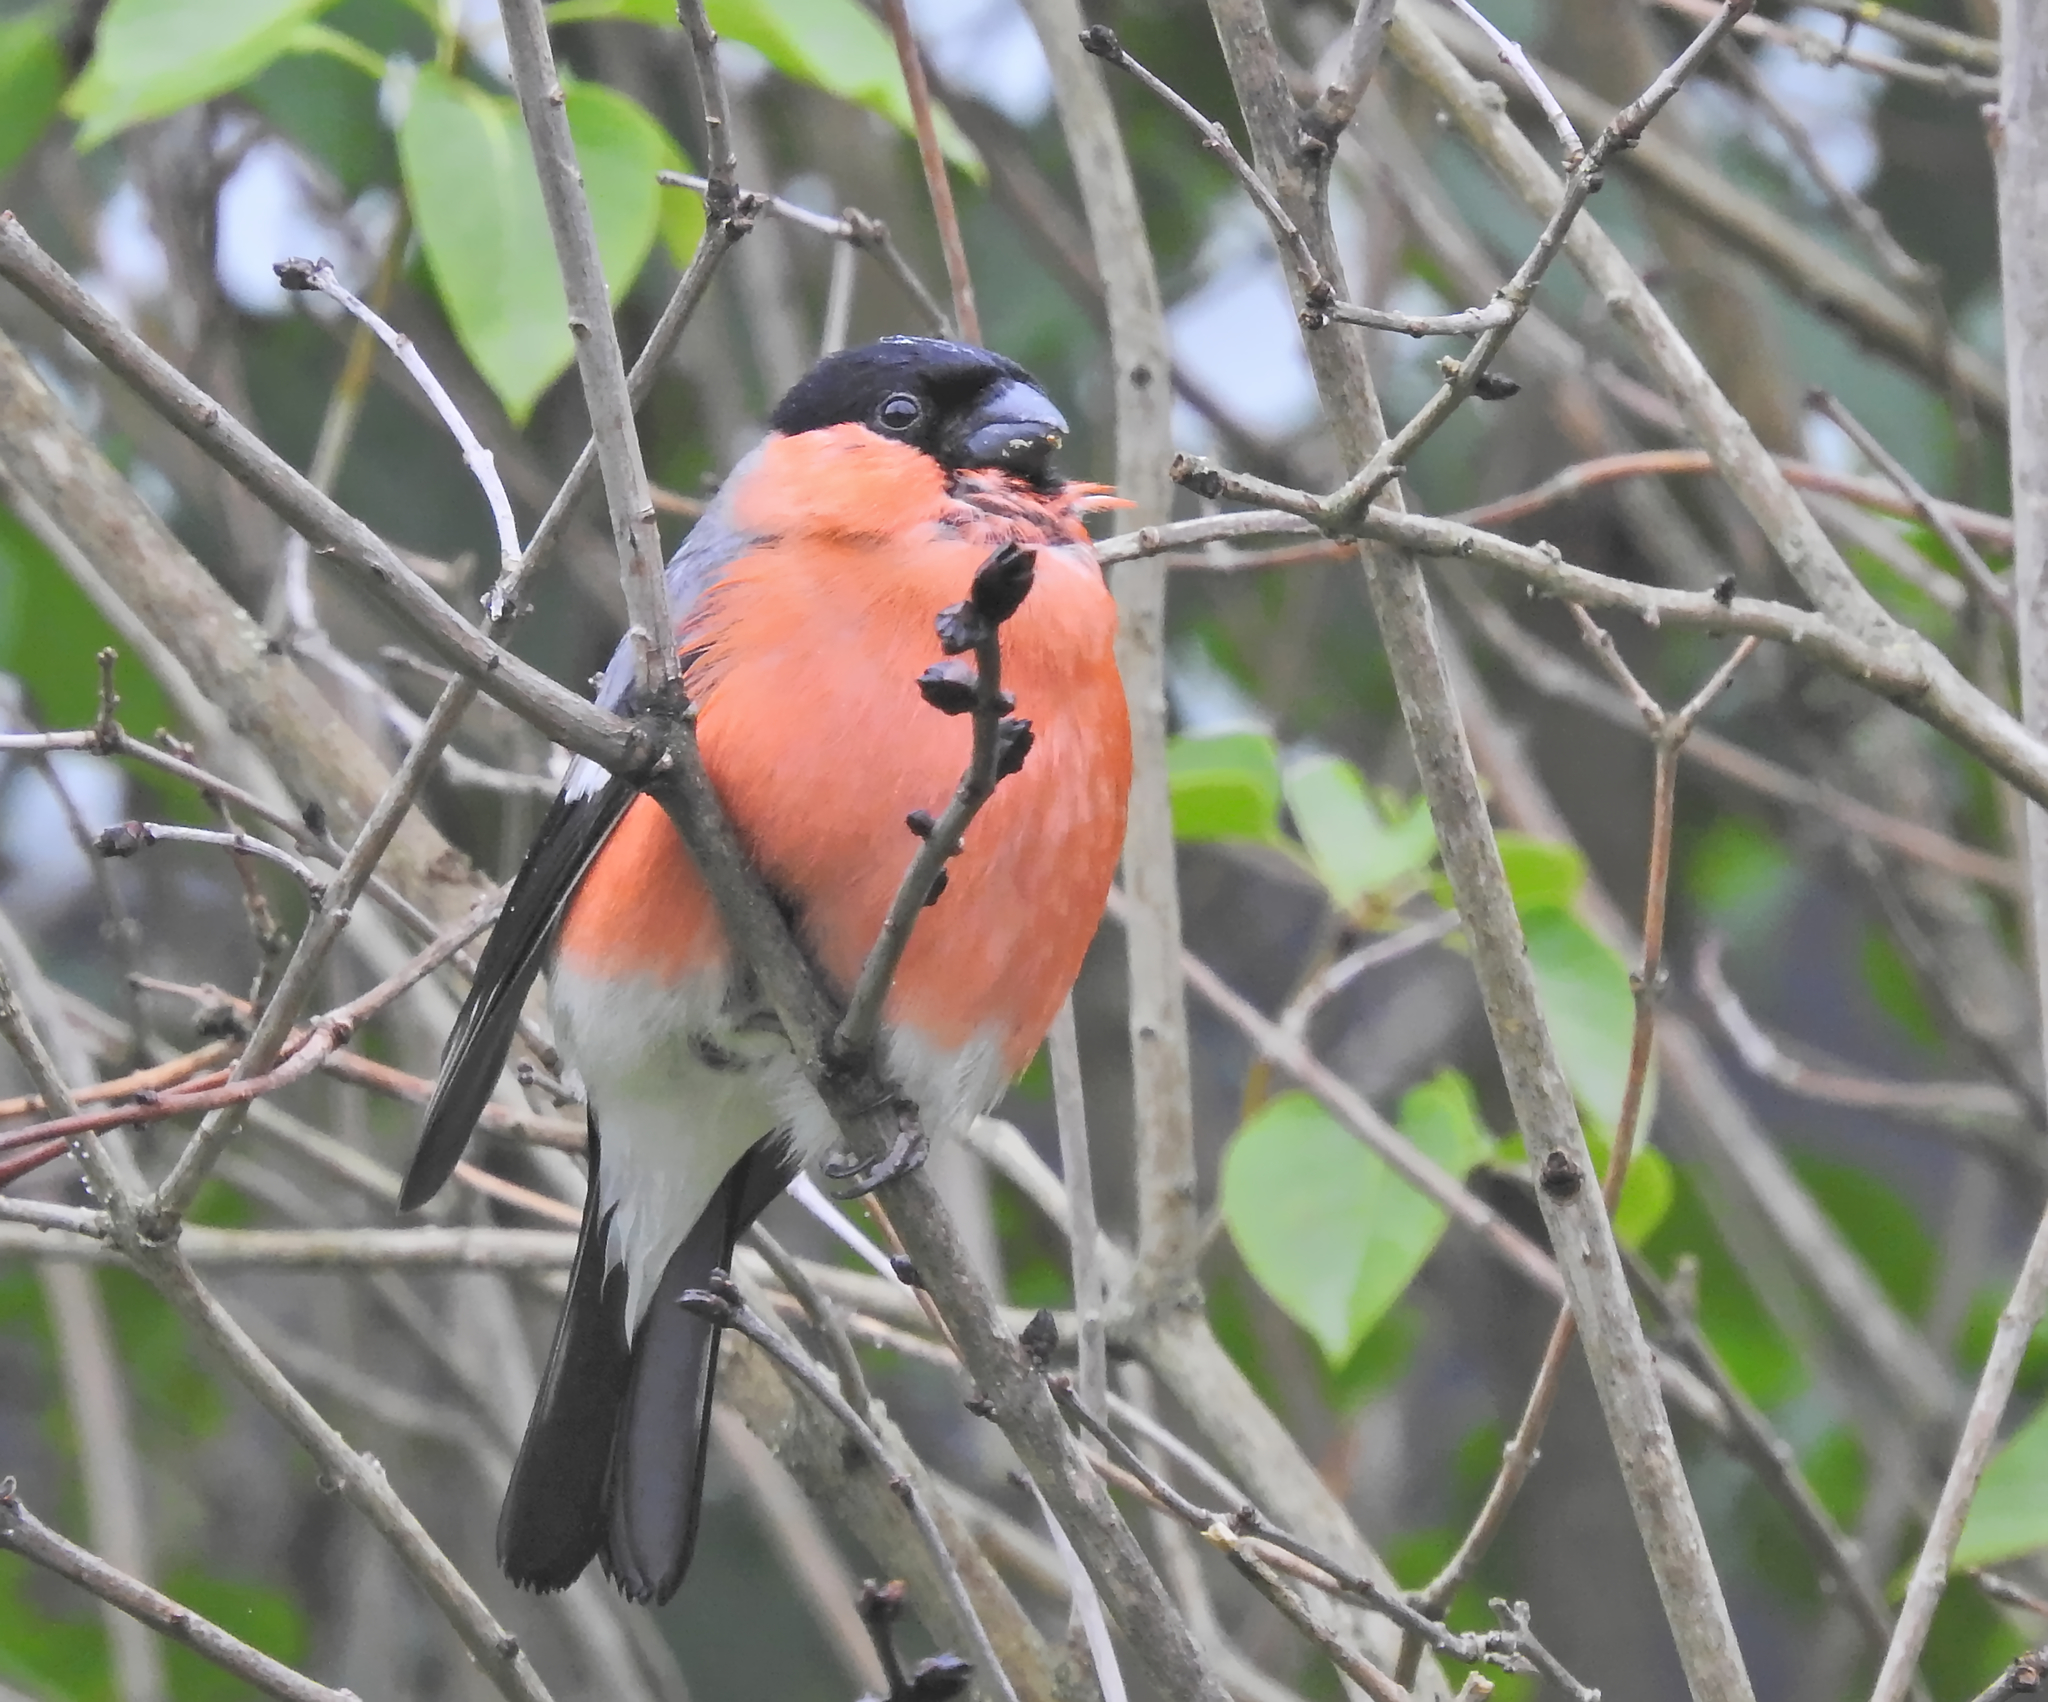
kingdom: Animalia
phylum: Chordata
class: Aves
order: Passeriformes
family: Fringillidae
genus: Pyrrhula
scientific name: Pyrrhula pyrrhula
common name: Eurasian bullfinch
